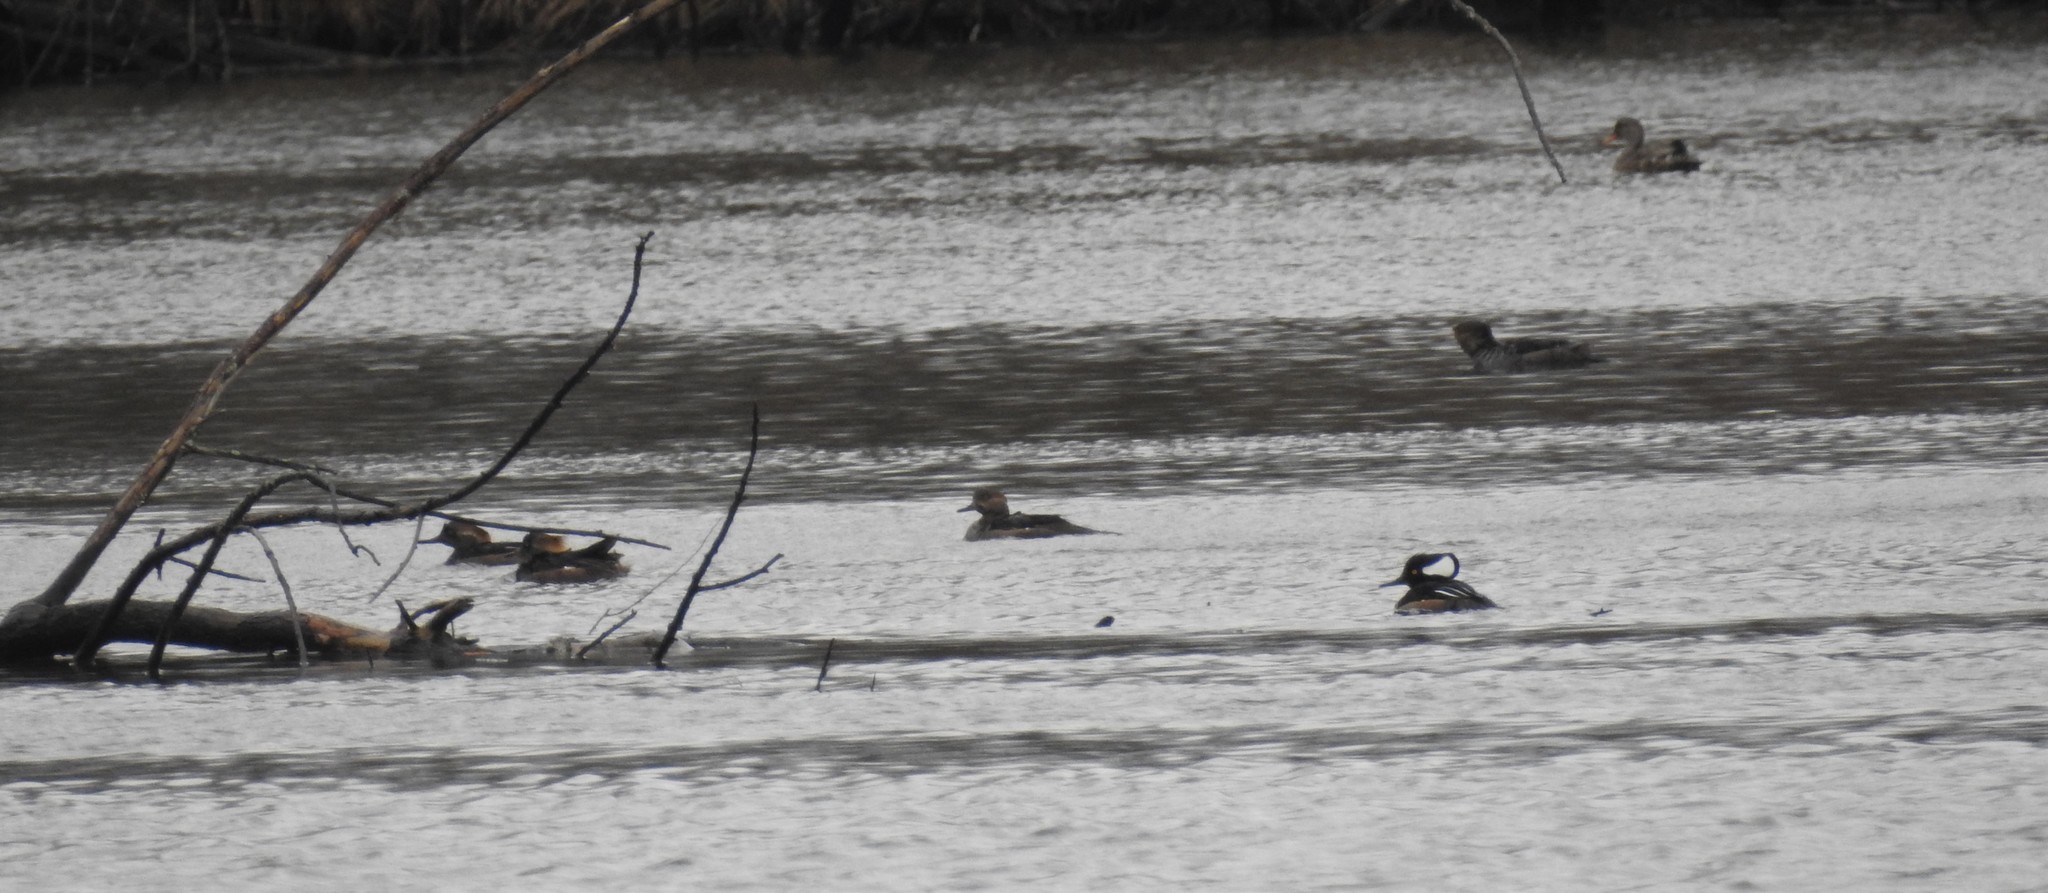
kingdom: Animalia
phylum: Chordata
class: Aves
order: Anseriformes
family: Anatidae
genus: Lophodytes
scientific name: Lophodytes cucullatus
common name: Hooded merganser
